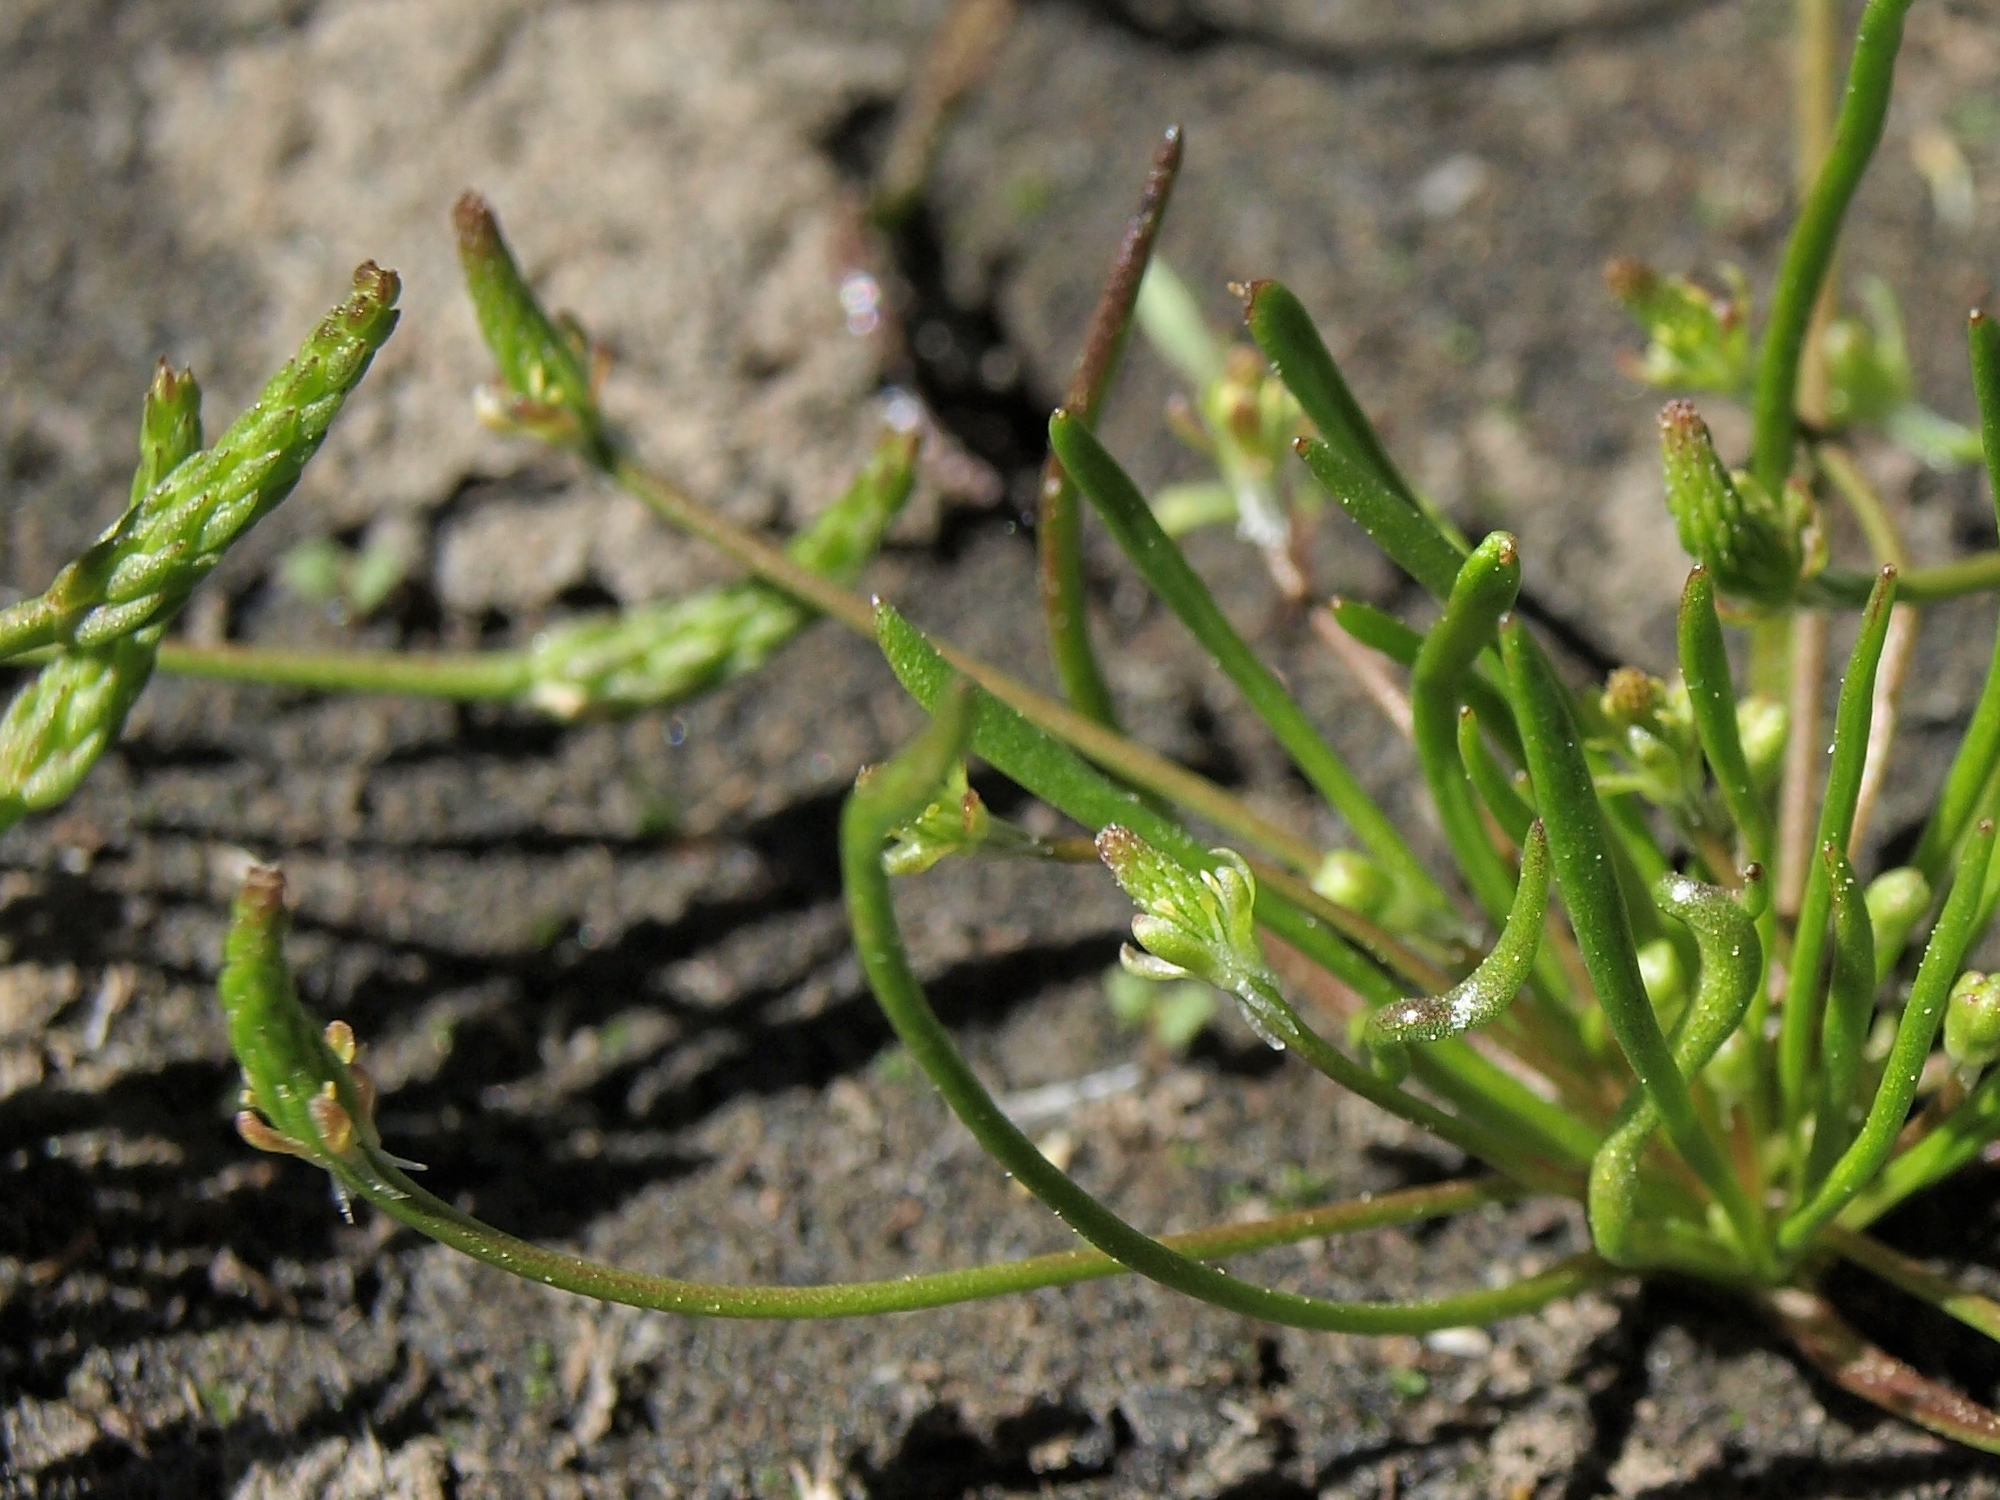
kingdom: Plantae
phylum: Tracheophyta
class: Magnoliopsida
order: Ranunculales
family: Ranunculaceae
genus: Myosurus
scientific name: Myosurus minimus
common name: Mousetail
